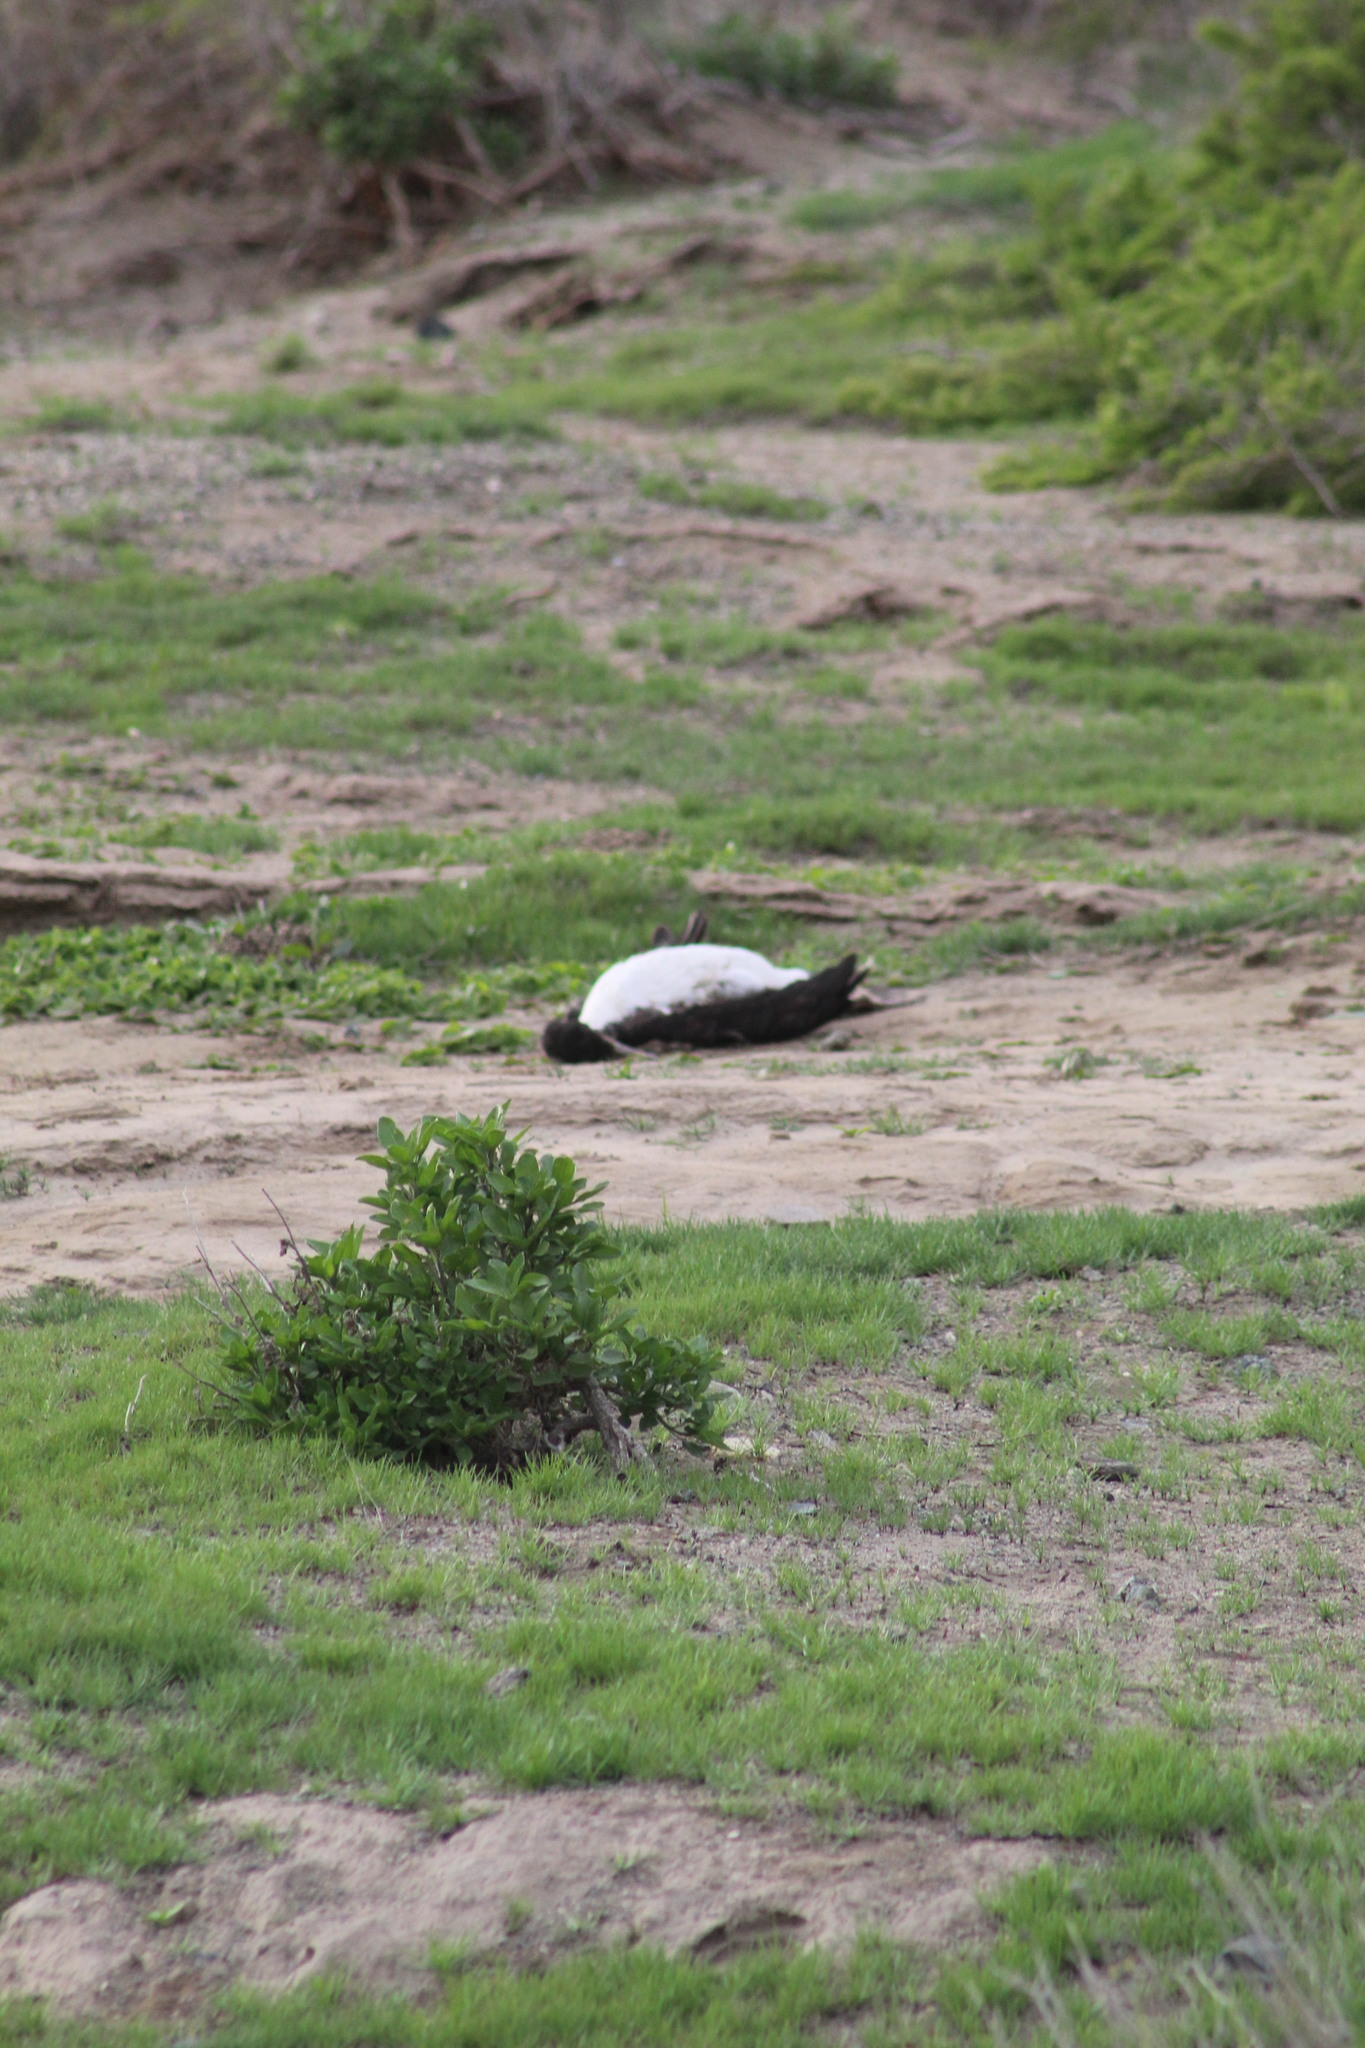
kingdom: Animalia
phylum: Chordata
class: Aves
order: Suliformes
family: Phalacrocoracidae
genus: Leucocarbo
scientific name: Leucocarbo bougainvillii
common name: Guanay cormorant
